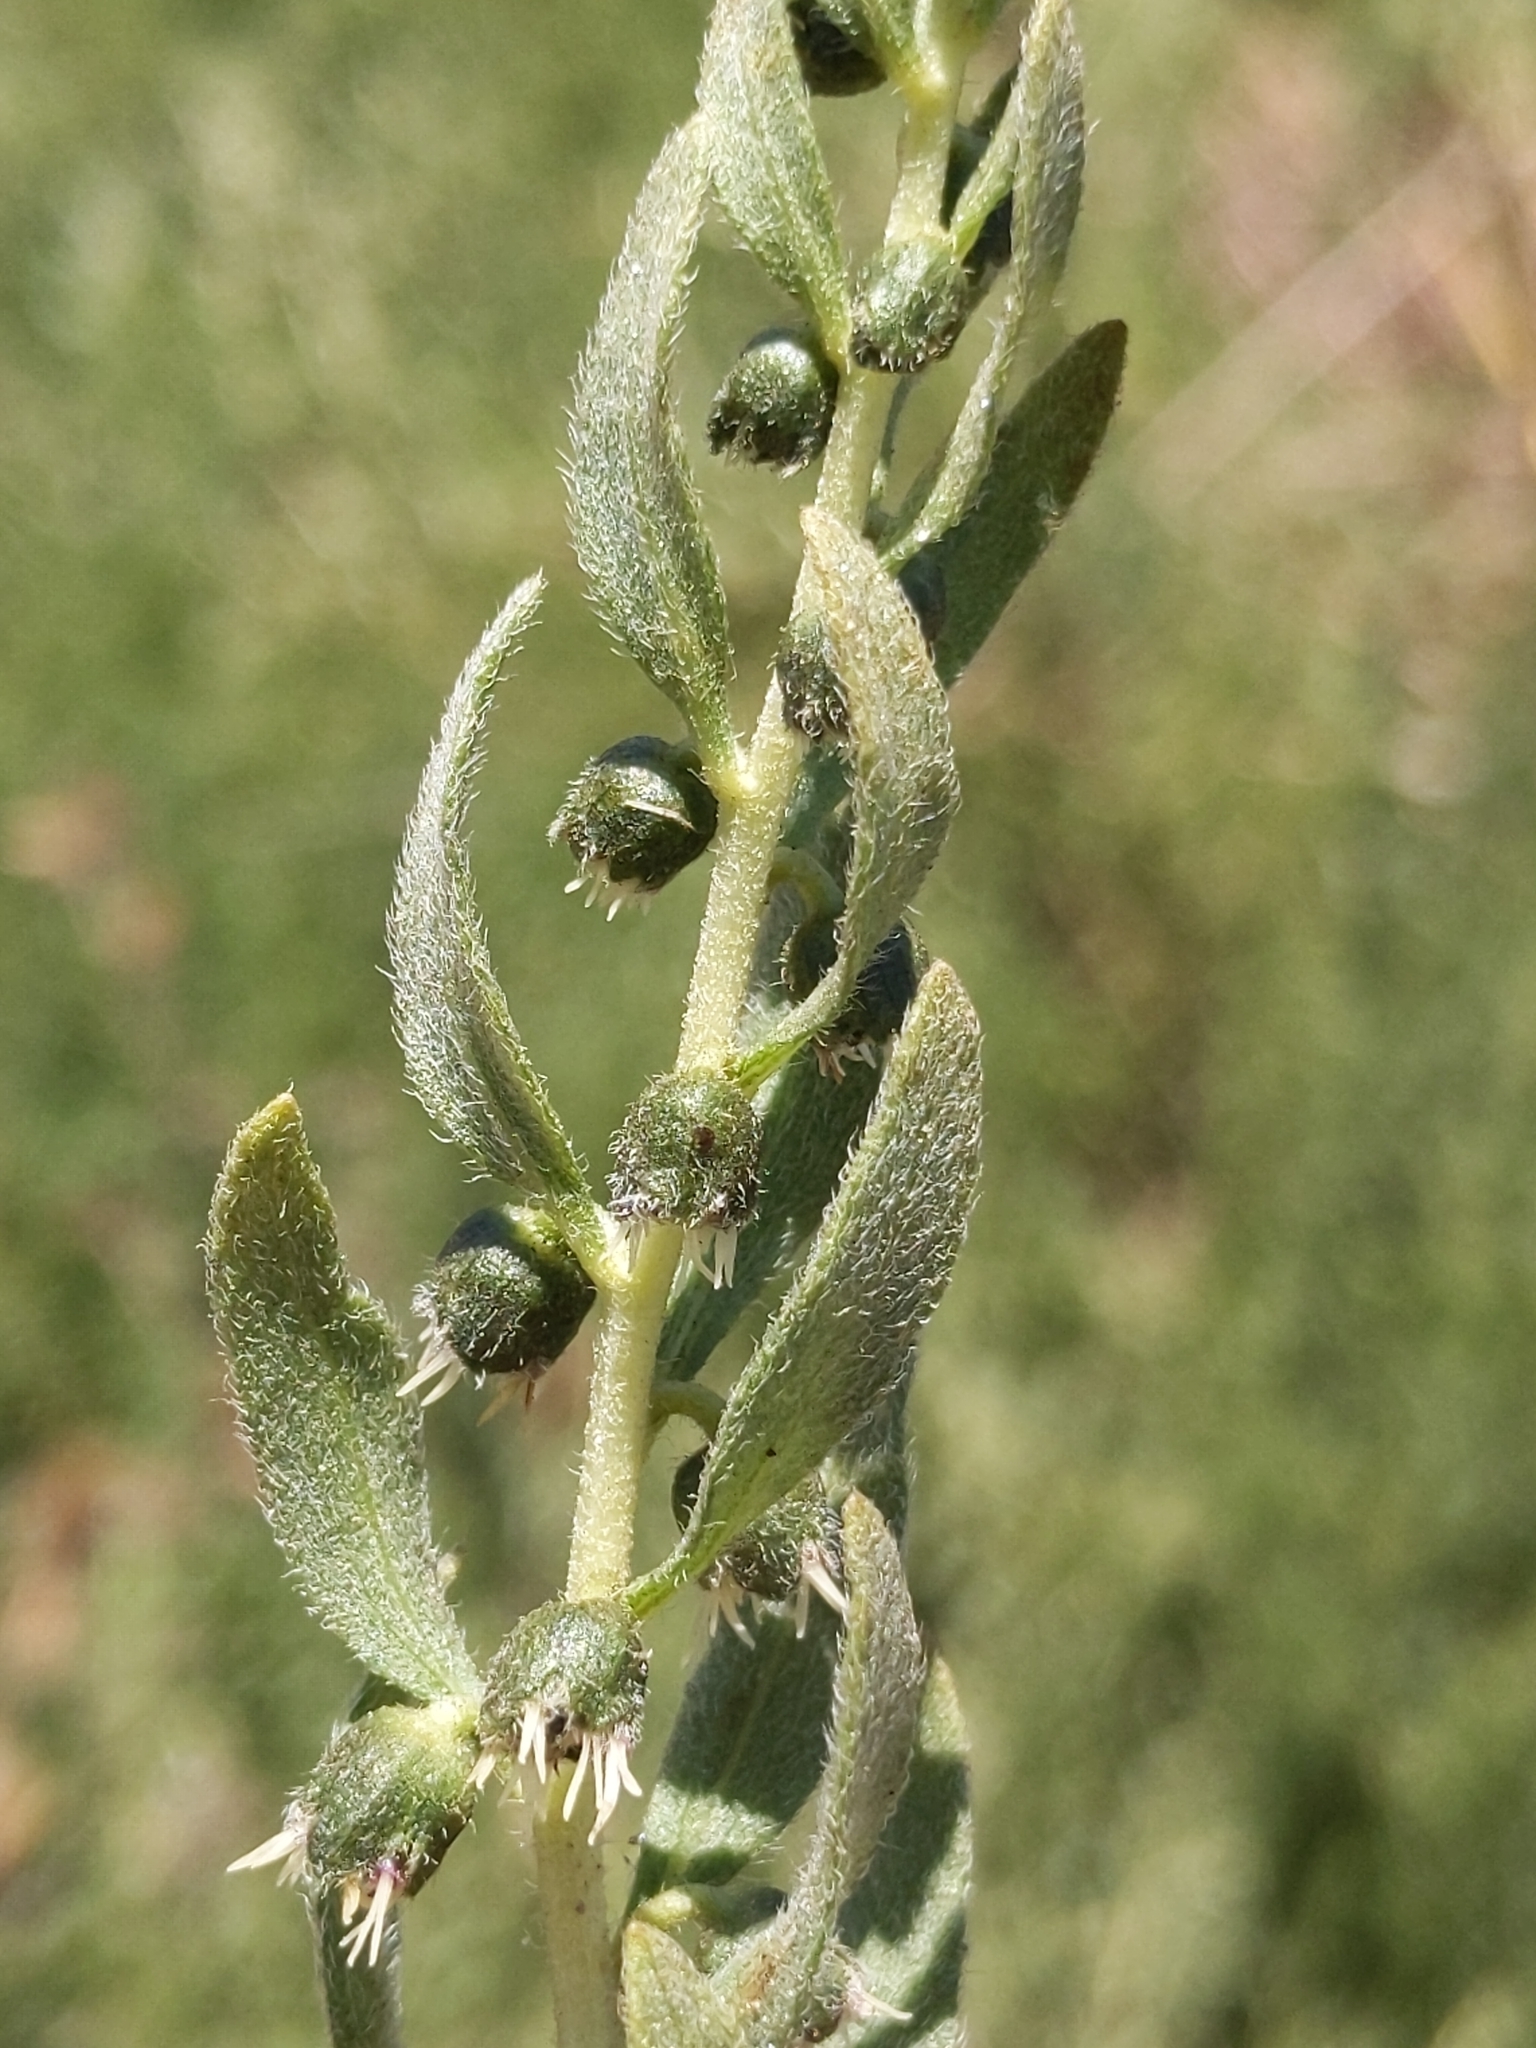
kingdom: Plantae
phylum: Tracheophyta
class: Magnoliopsida
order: Asterales
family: Asteraceae
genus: Iva
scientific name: Iva axillaris
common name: Poverty sumpweed
